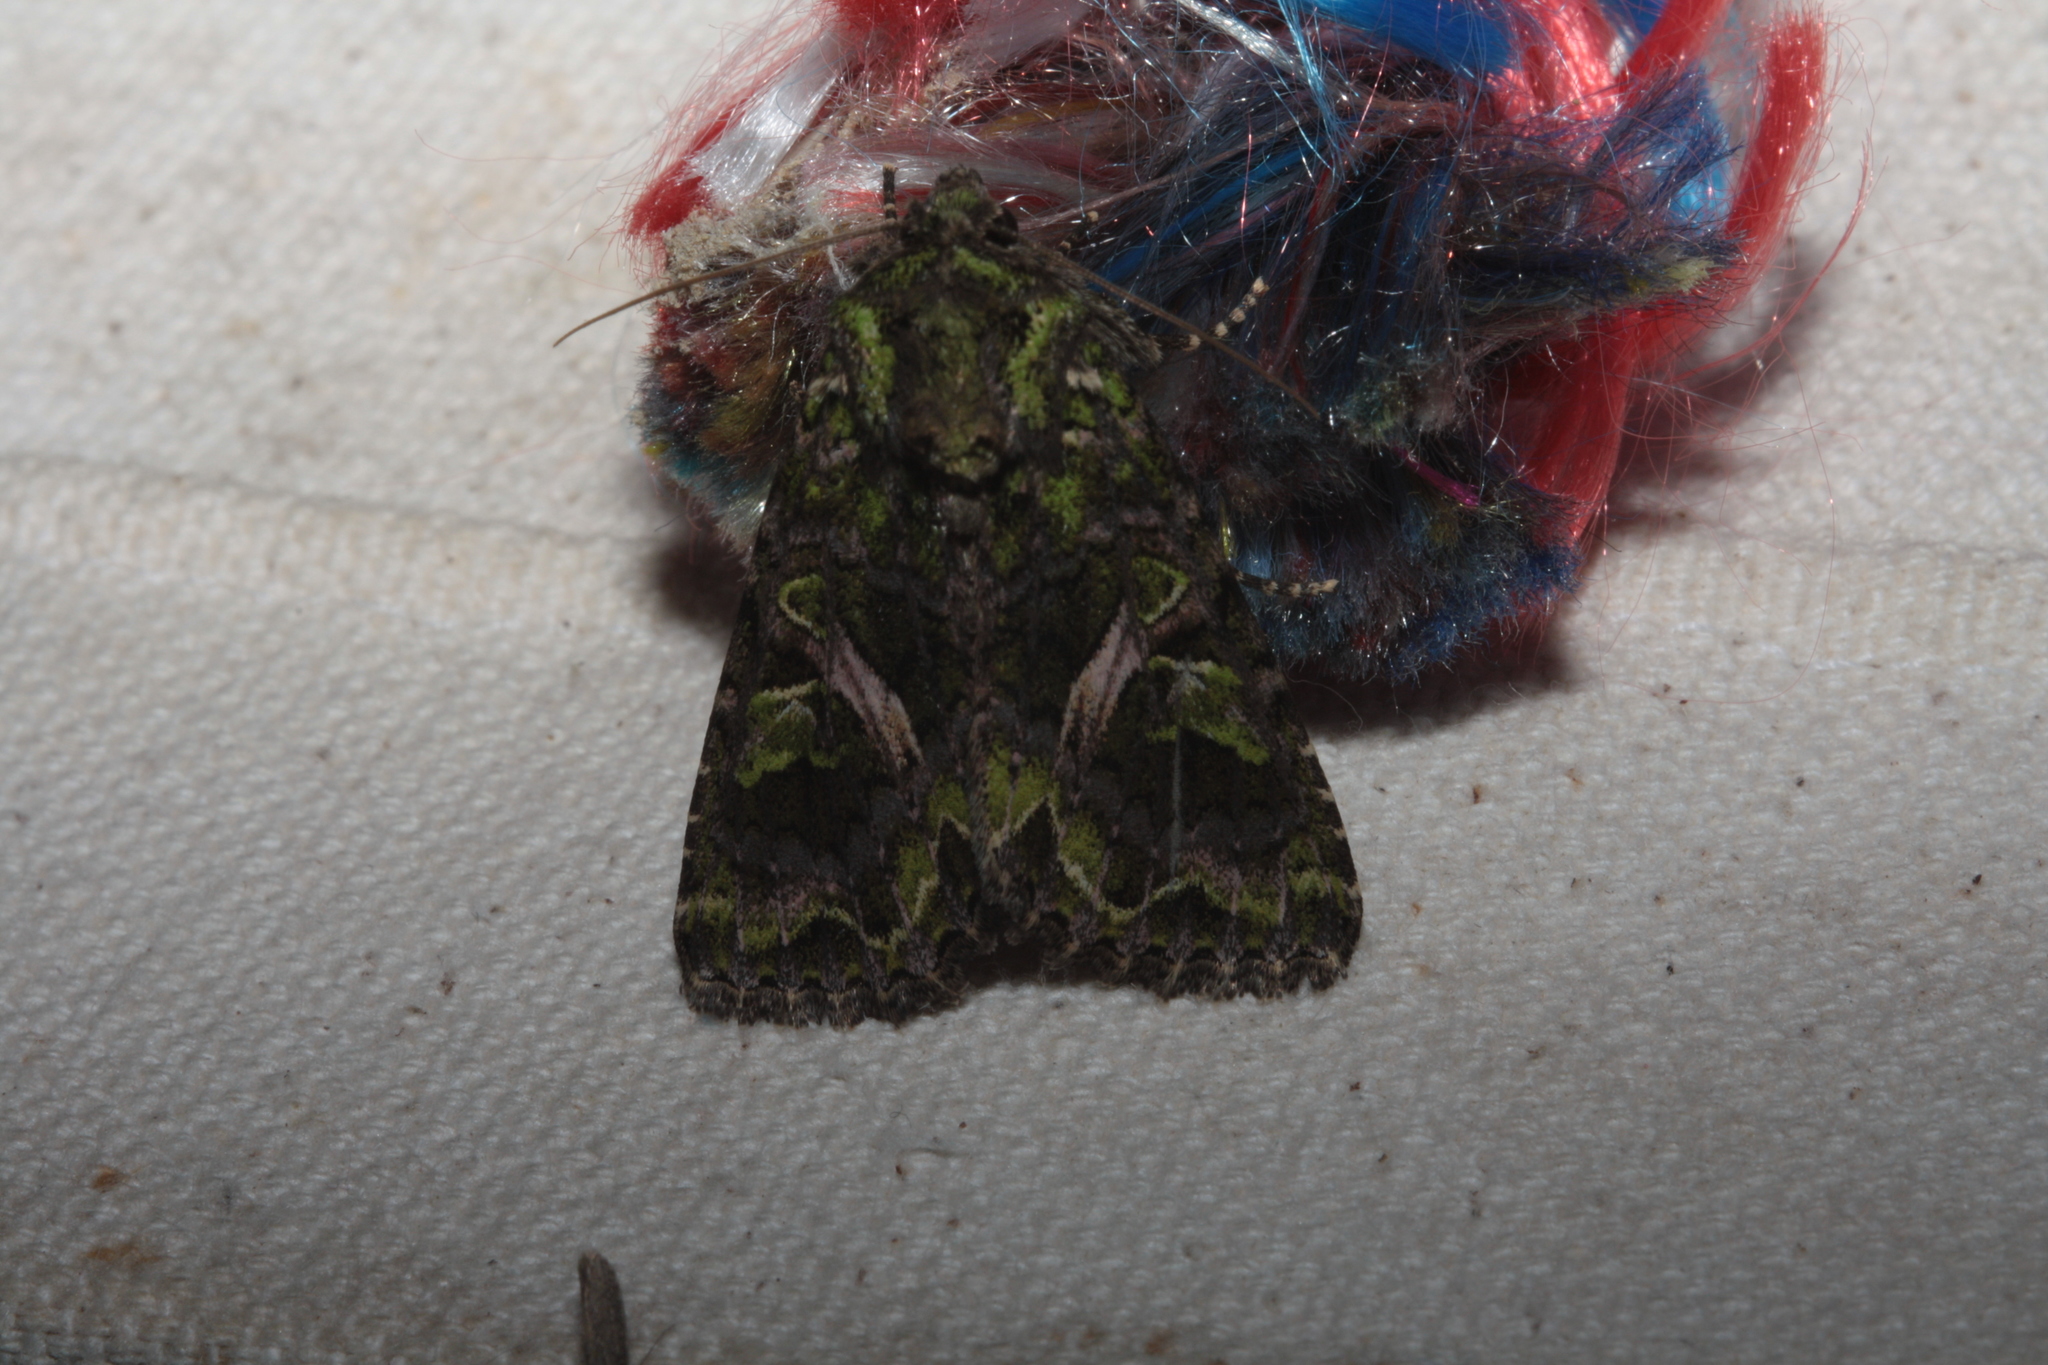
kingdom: Animalia
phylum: Arthropoda
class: Insecta
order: Lepidoptera
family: Noctuidae
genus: Trachea
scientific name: Trachea atriplicis
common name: Orache moth
